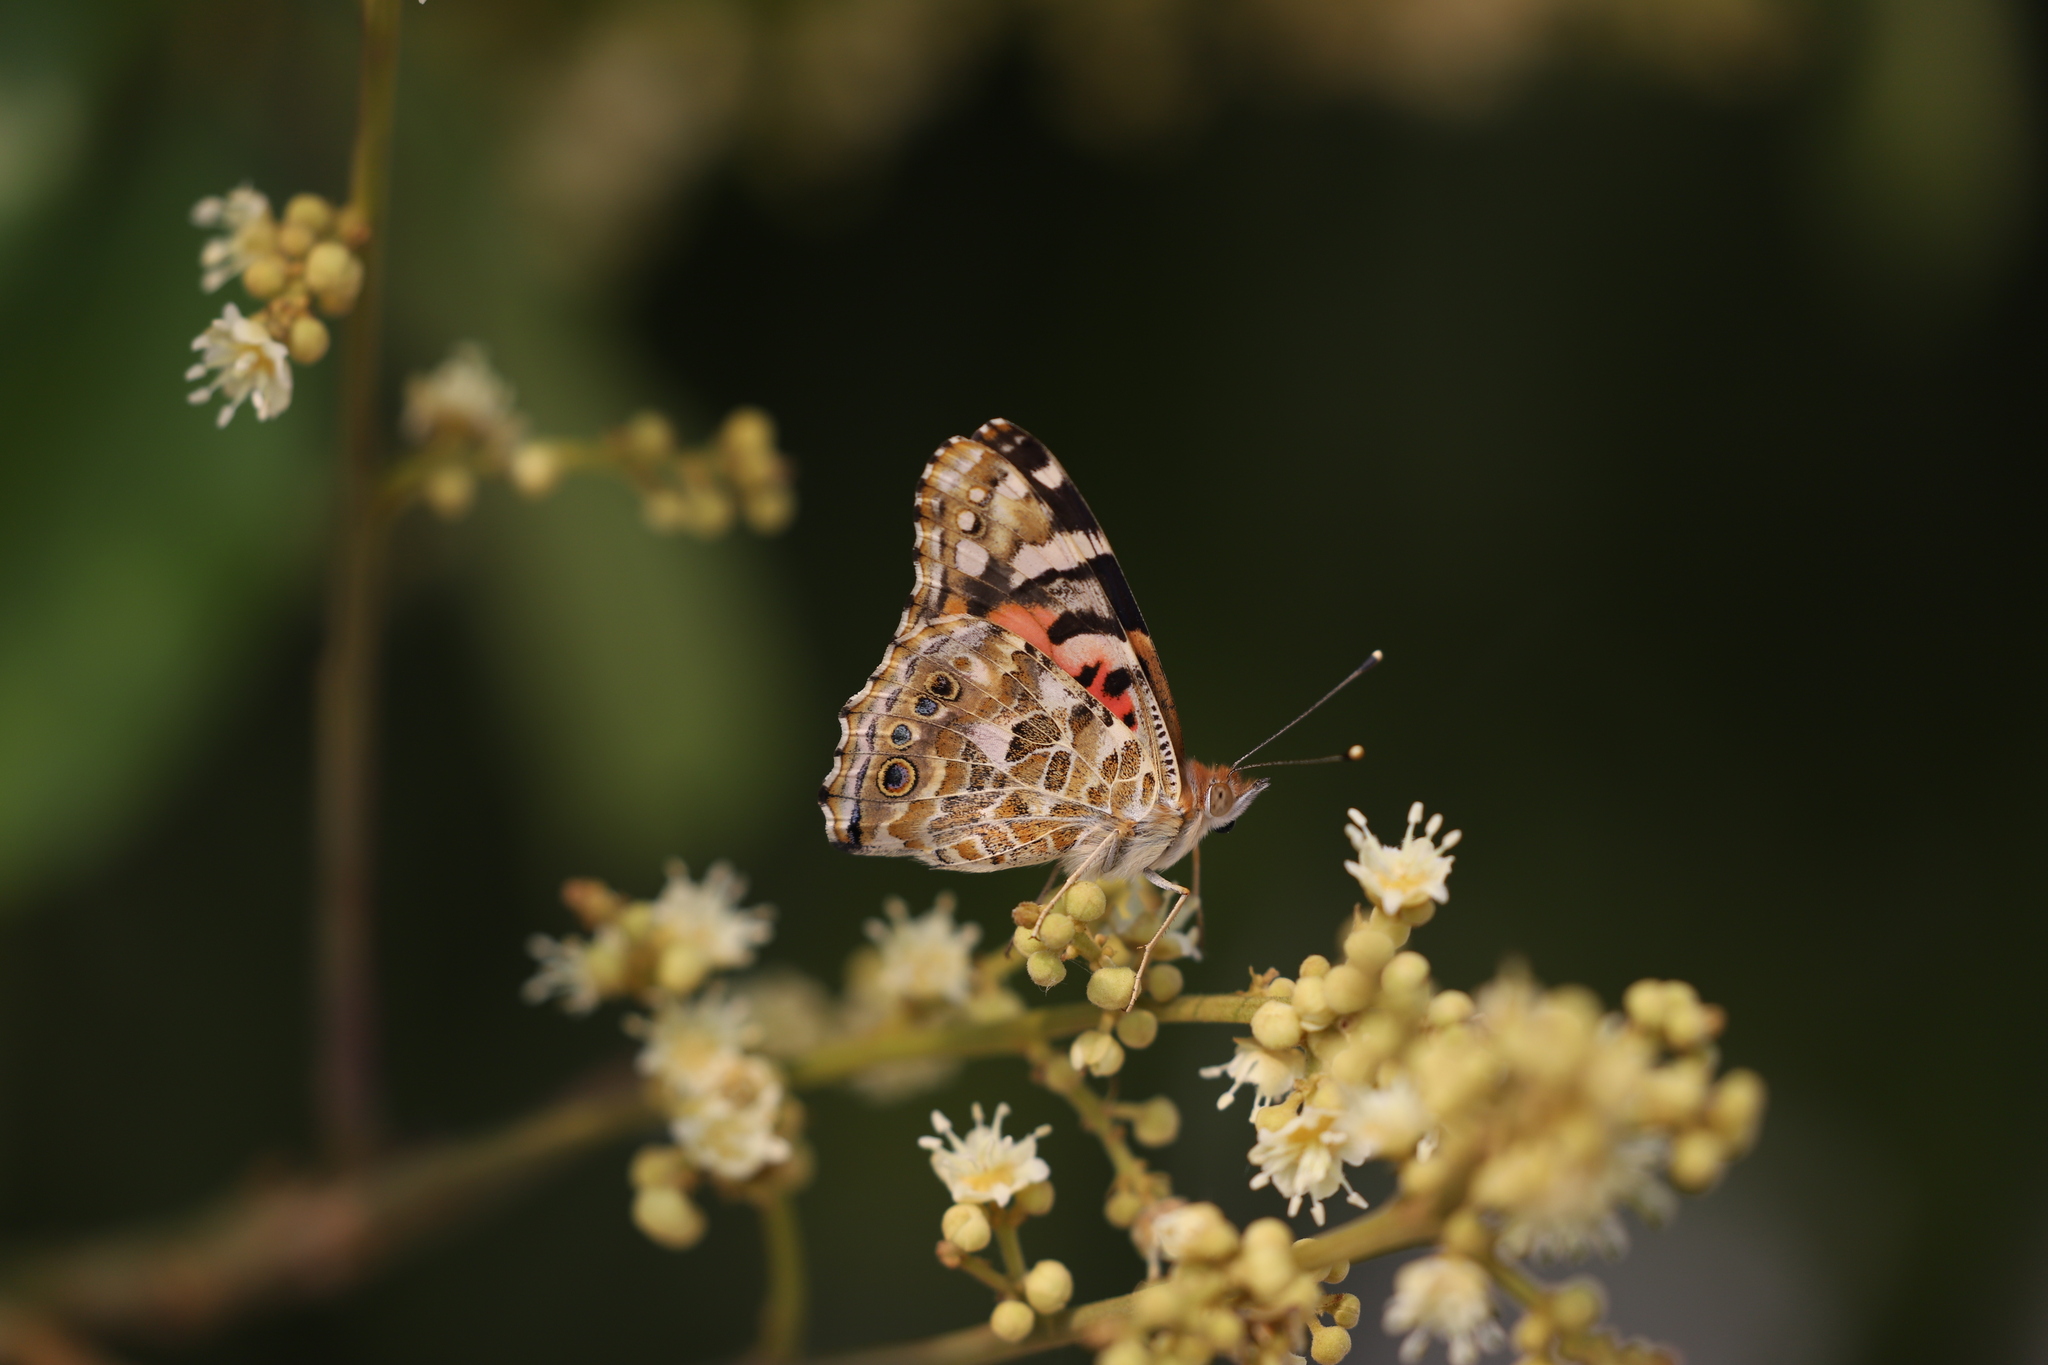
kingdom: Animalia
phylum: Arthropoda
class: Insecta
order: Lepidoptera
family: Nymphalidae
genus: Vanessa
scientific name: Vanessa cardui
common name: Painted lady
